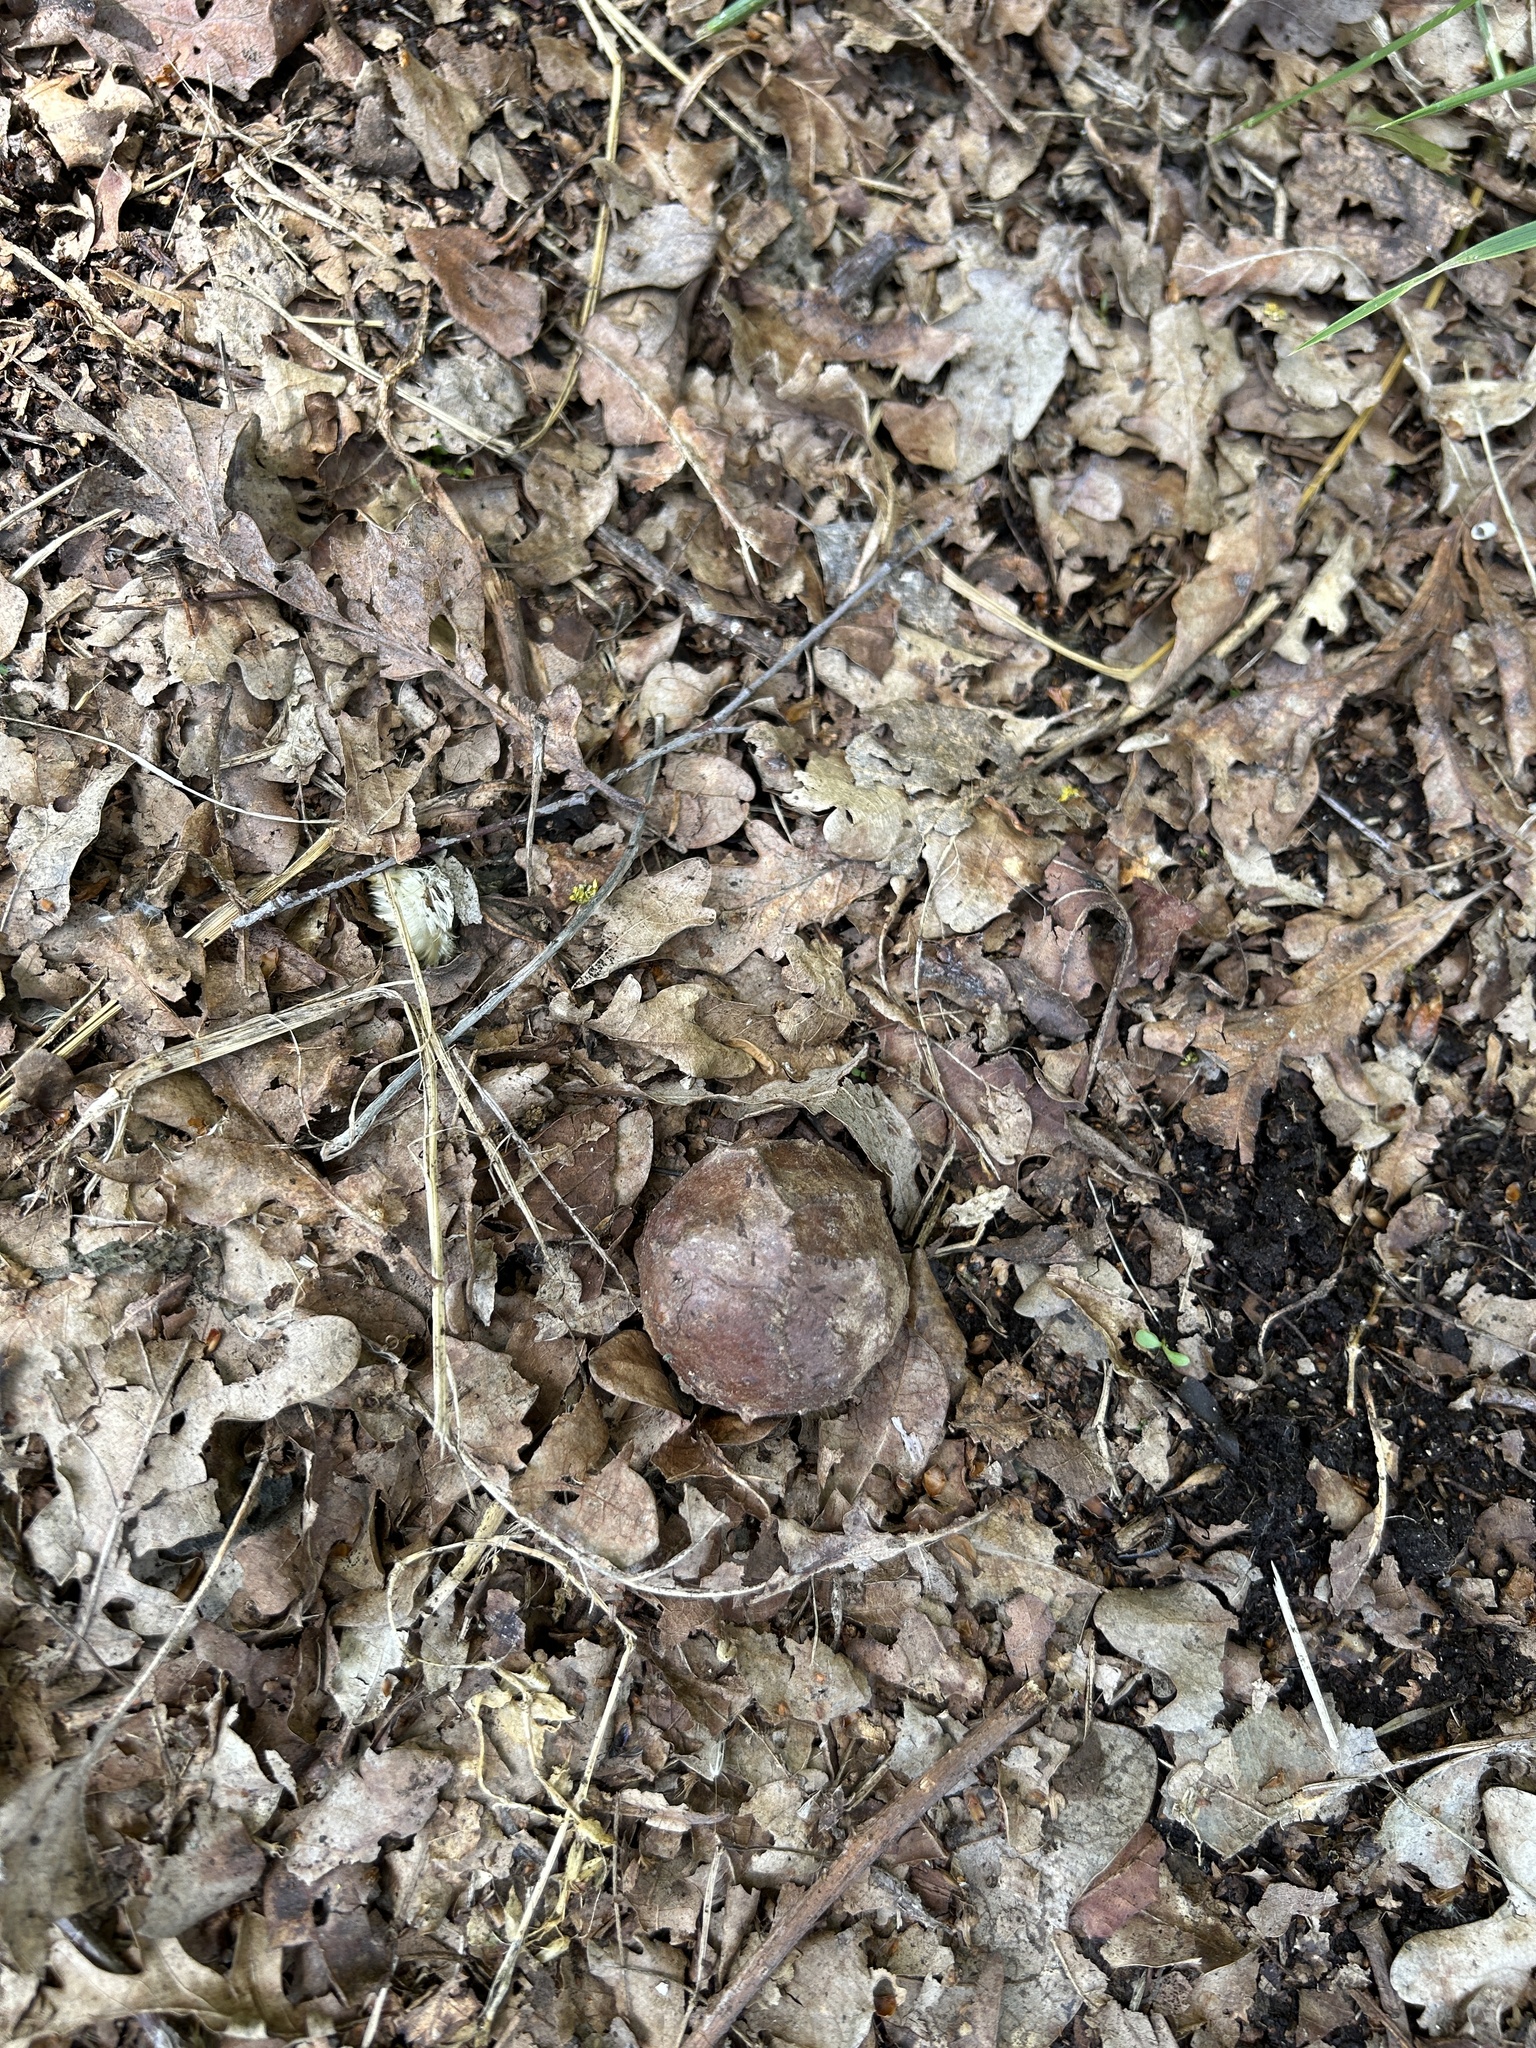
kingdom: Animalia
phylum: Arthropoda
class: Insecta
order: Hymenoptera
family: Cynipidae
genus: Andricus
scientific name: Andricus hungaricus
